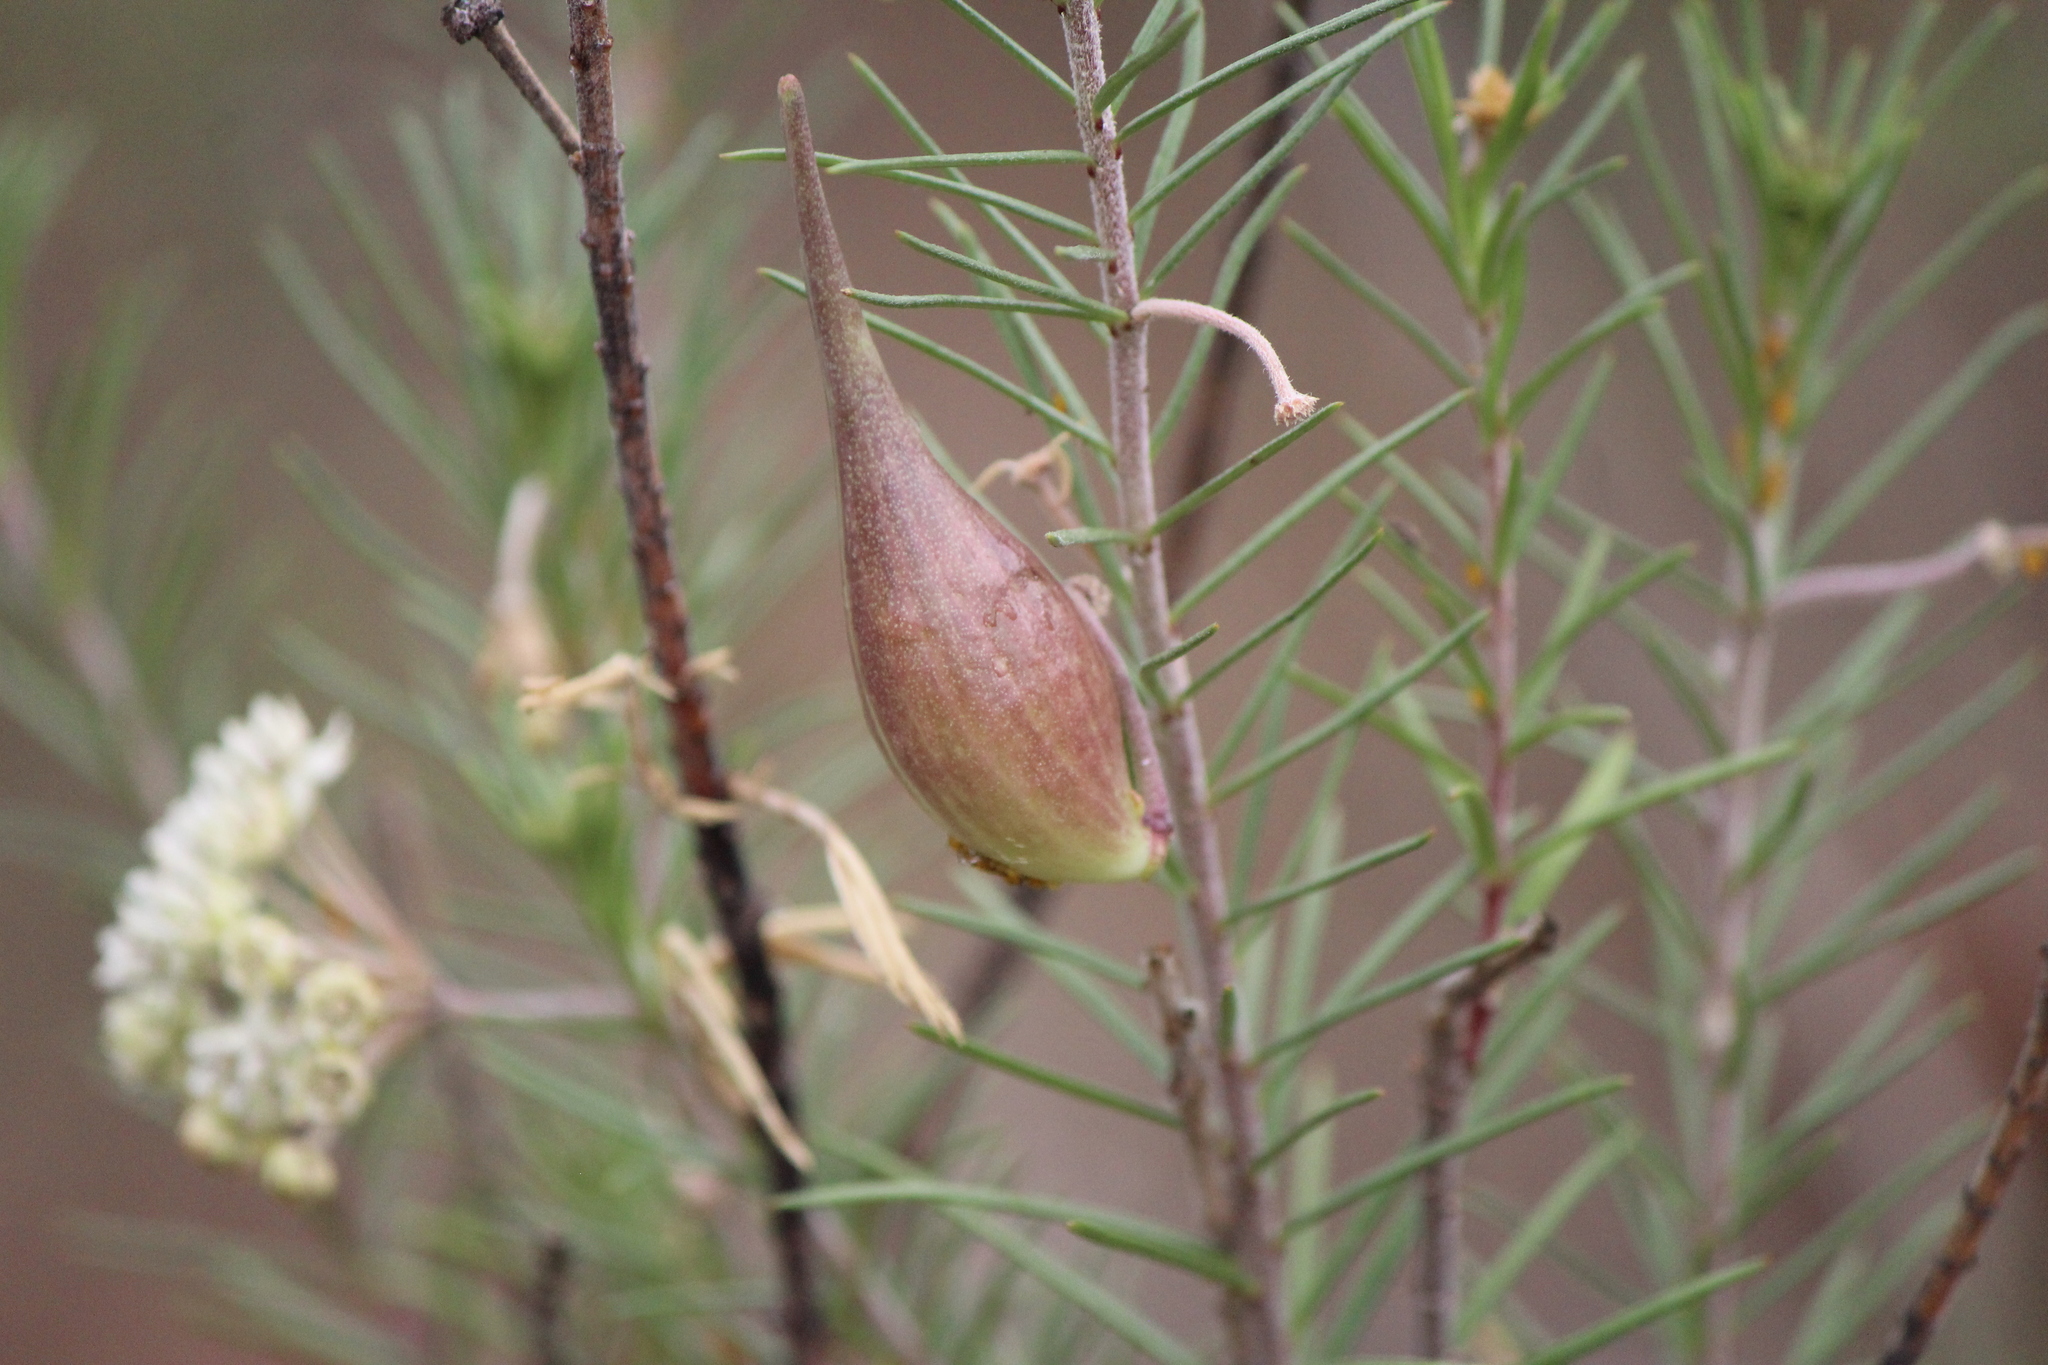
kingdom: Plantae
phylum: Tracheophyta
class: Magnoliopsida
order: Gentianales
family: Apocynaceae
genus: Asclepias
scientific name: Asclepias linaria
